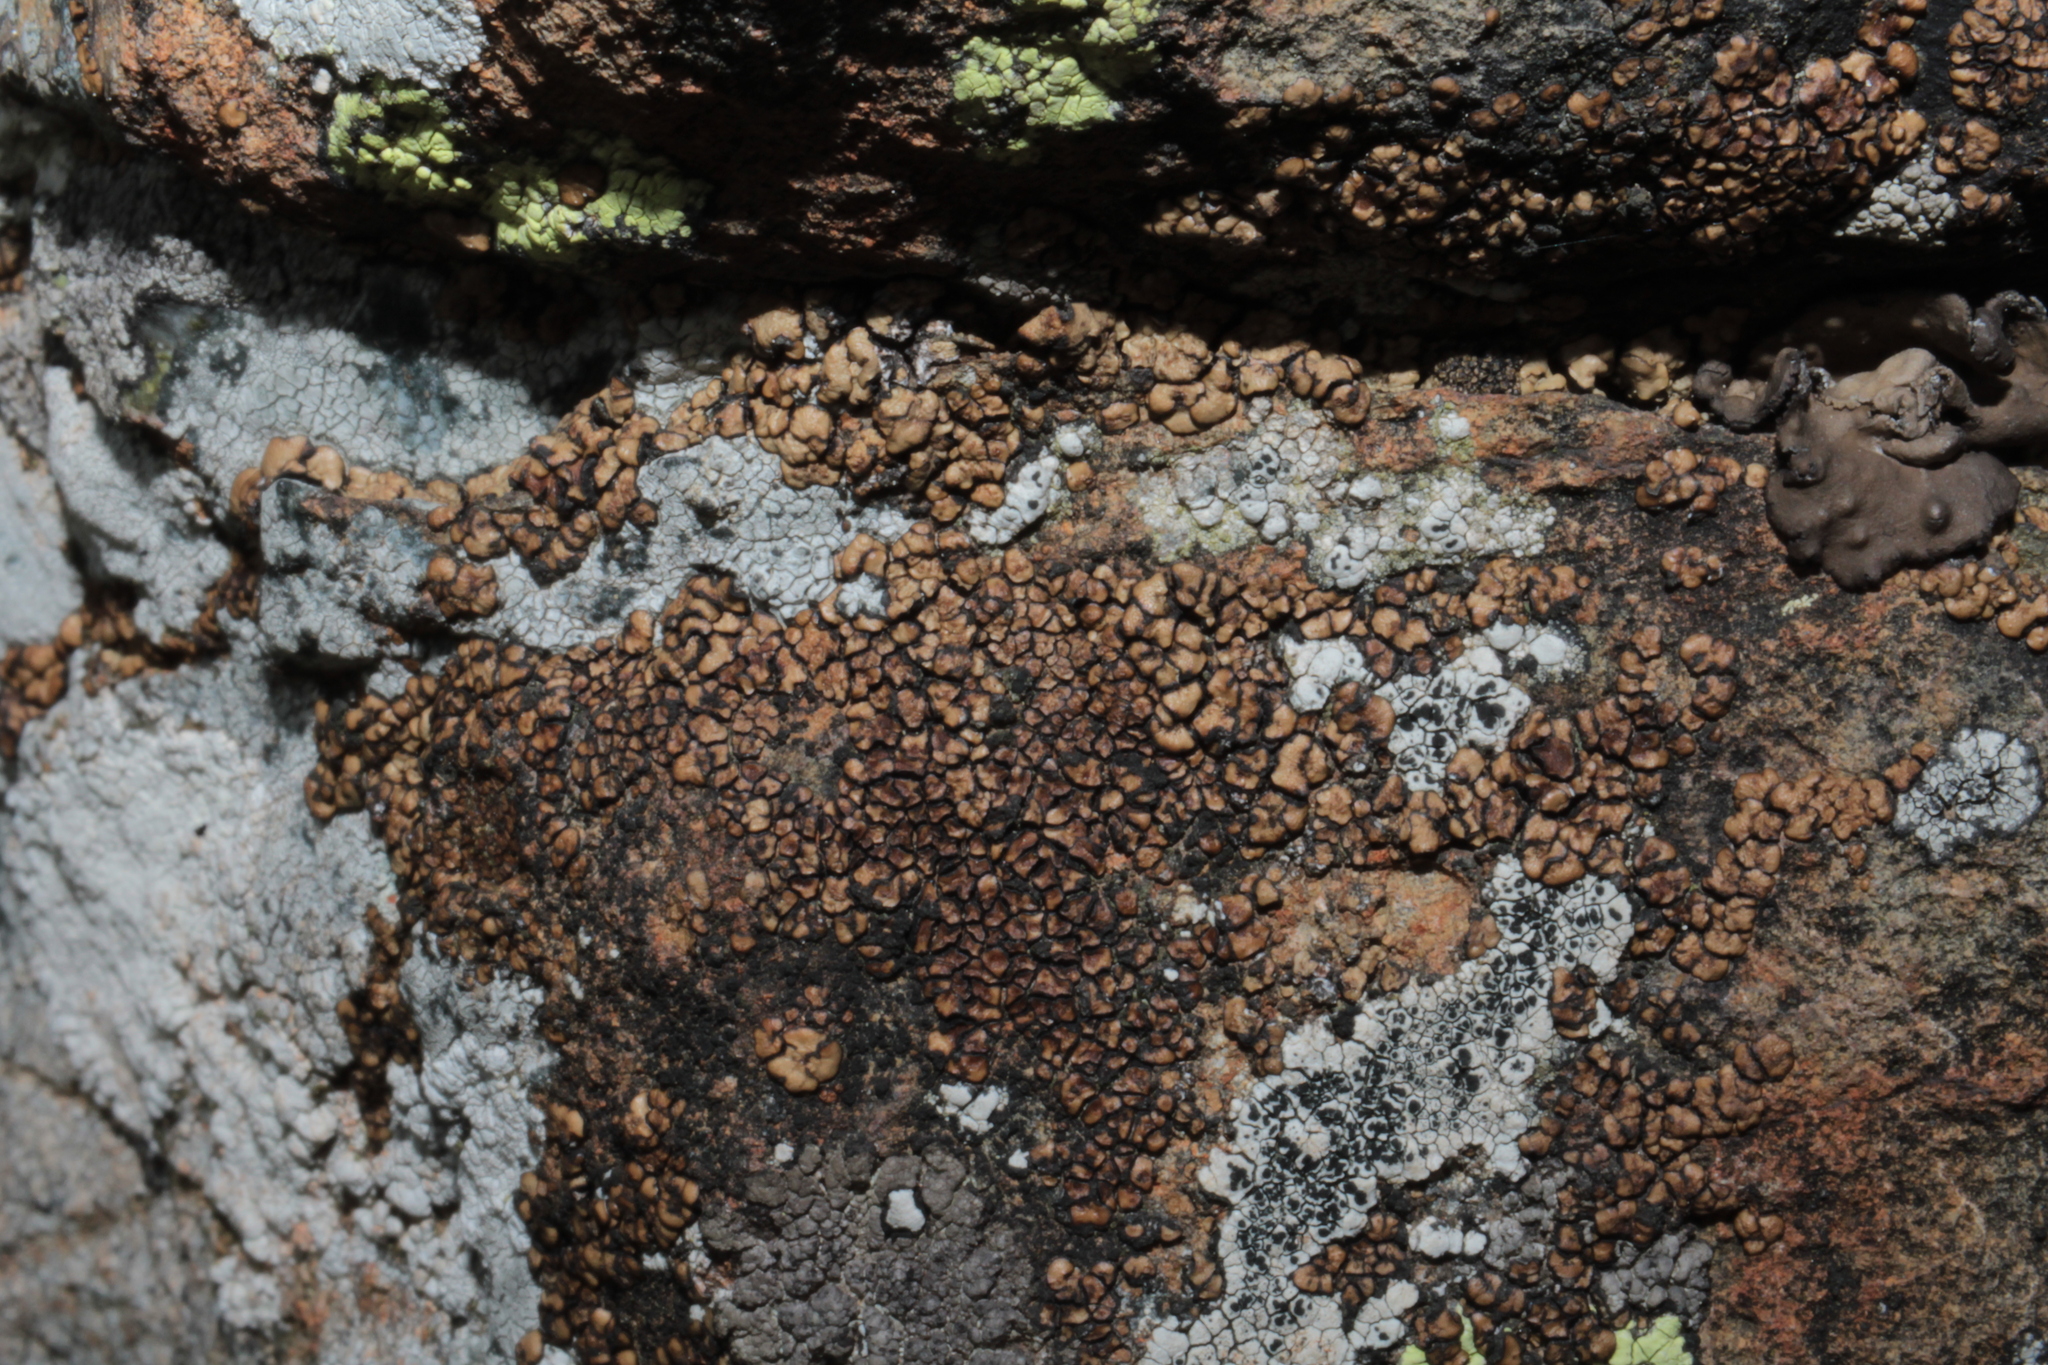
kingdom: Fungi
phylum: Ascomycota
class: Lecanoromycetes
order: Acarosporales
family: Acarosporaceae
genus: Acarospora
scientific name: Acarospora fuscata
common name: Brown cobblestone lichen
